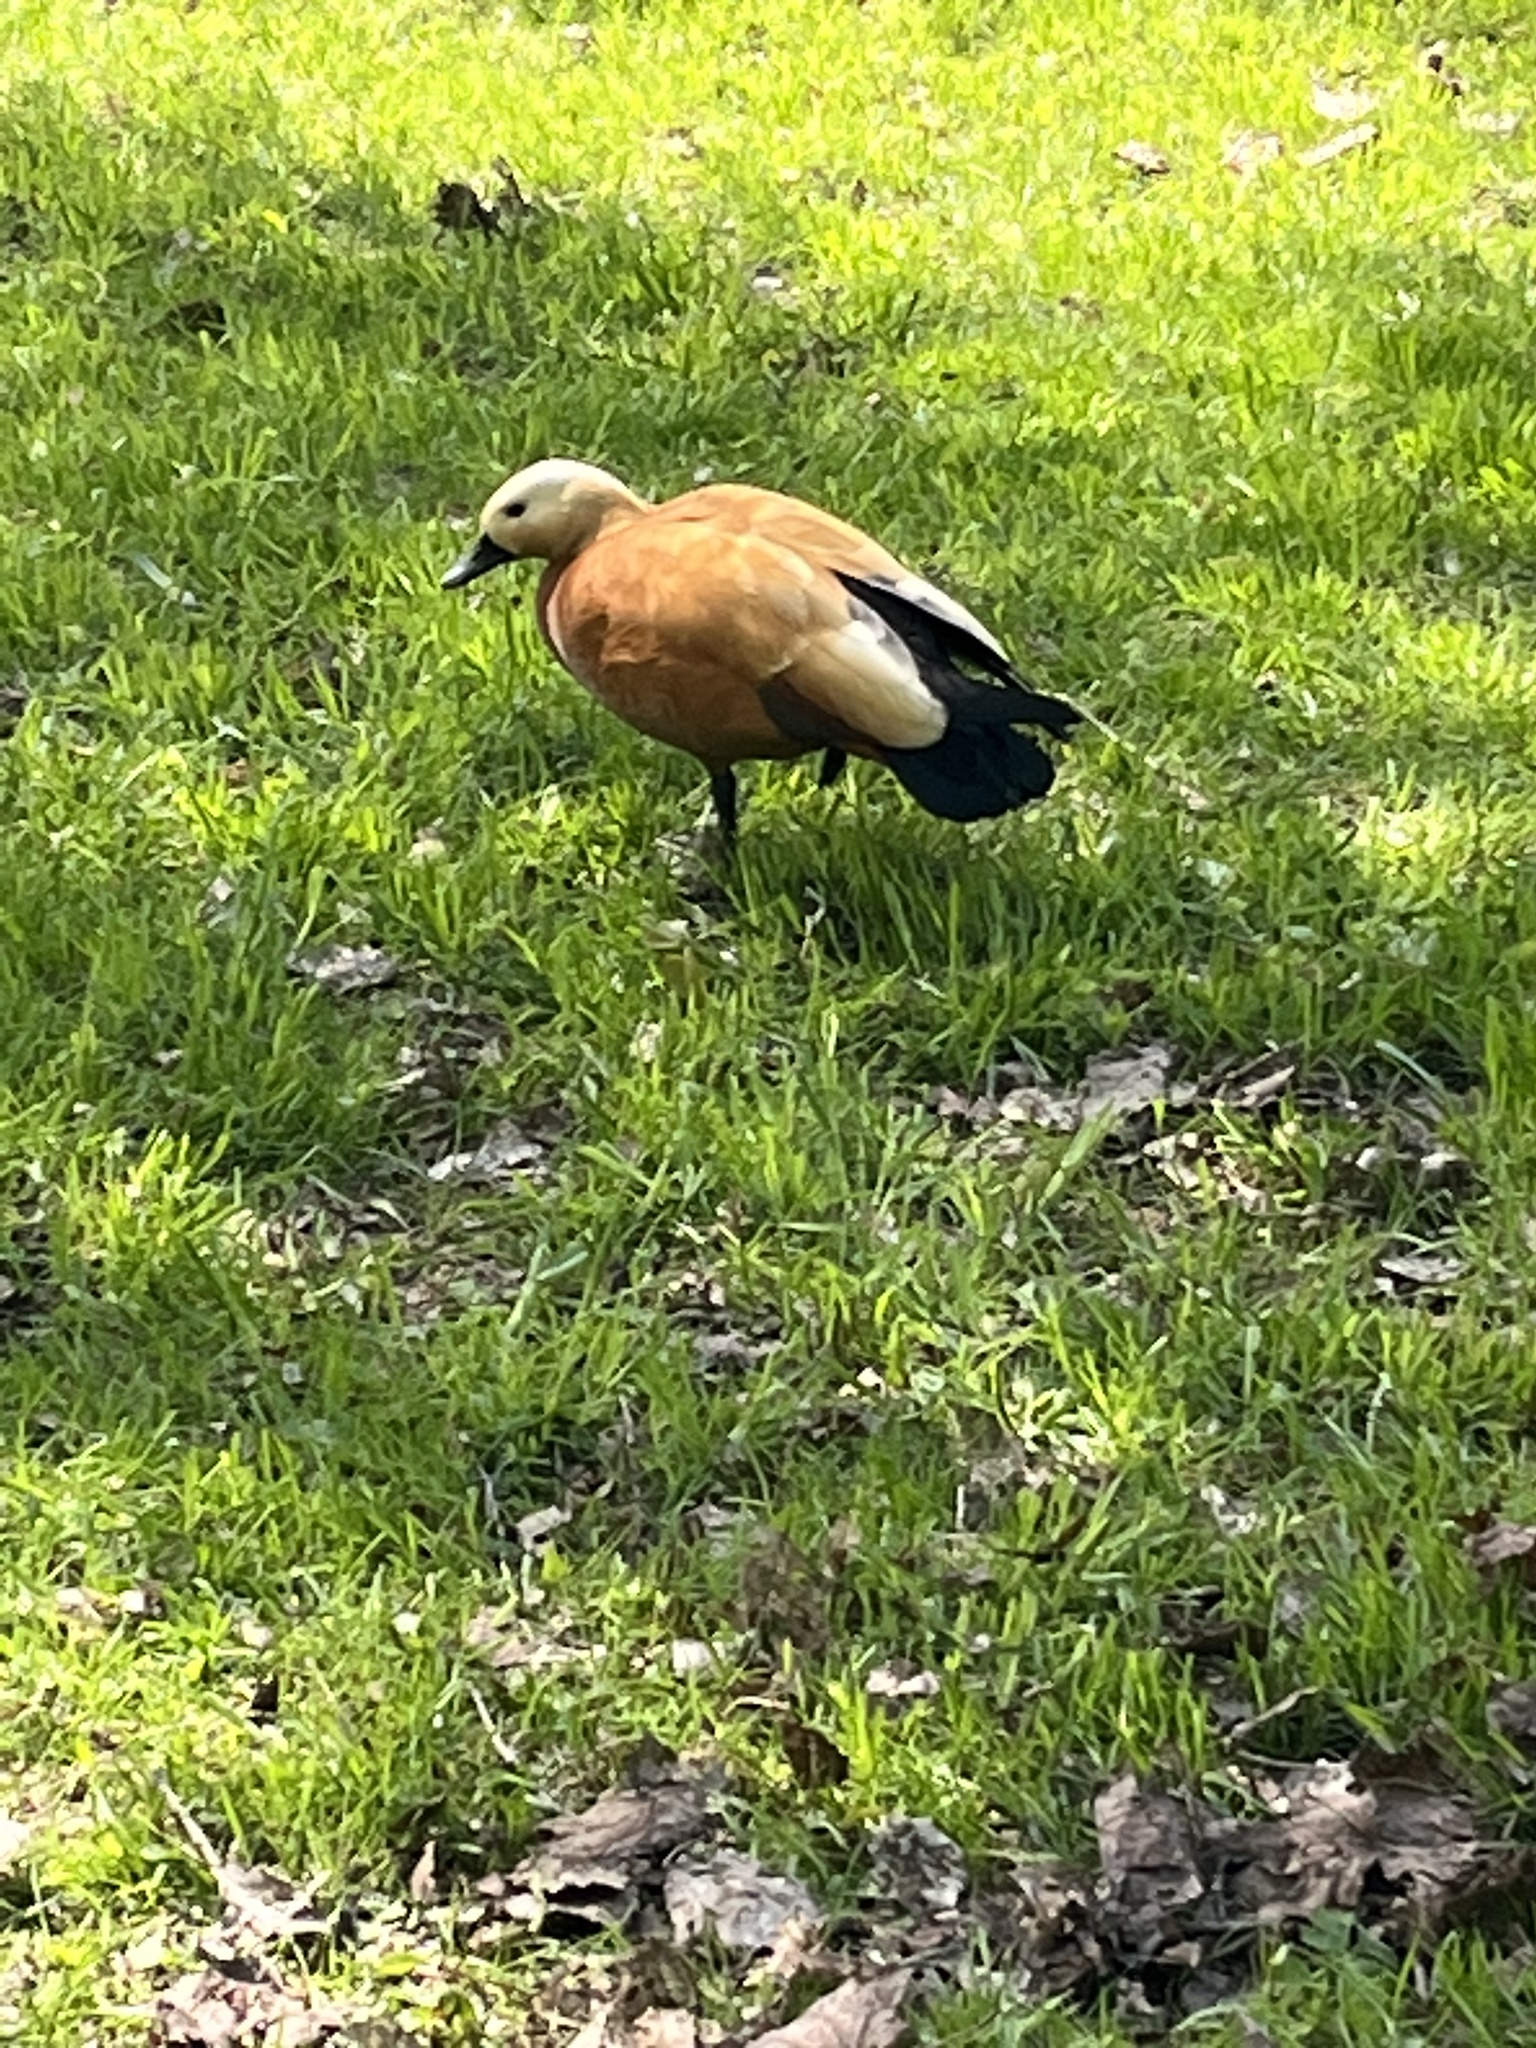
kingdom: Animalia
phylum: Chordata
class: Aves
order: Anseriformes
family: Anatidae
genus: Tadorna
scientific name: Tadorna ferruginea
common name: Ruddy shelduck
